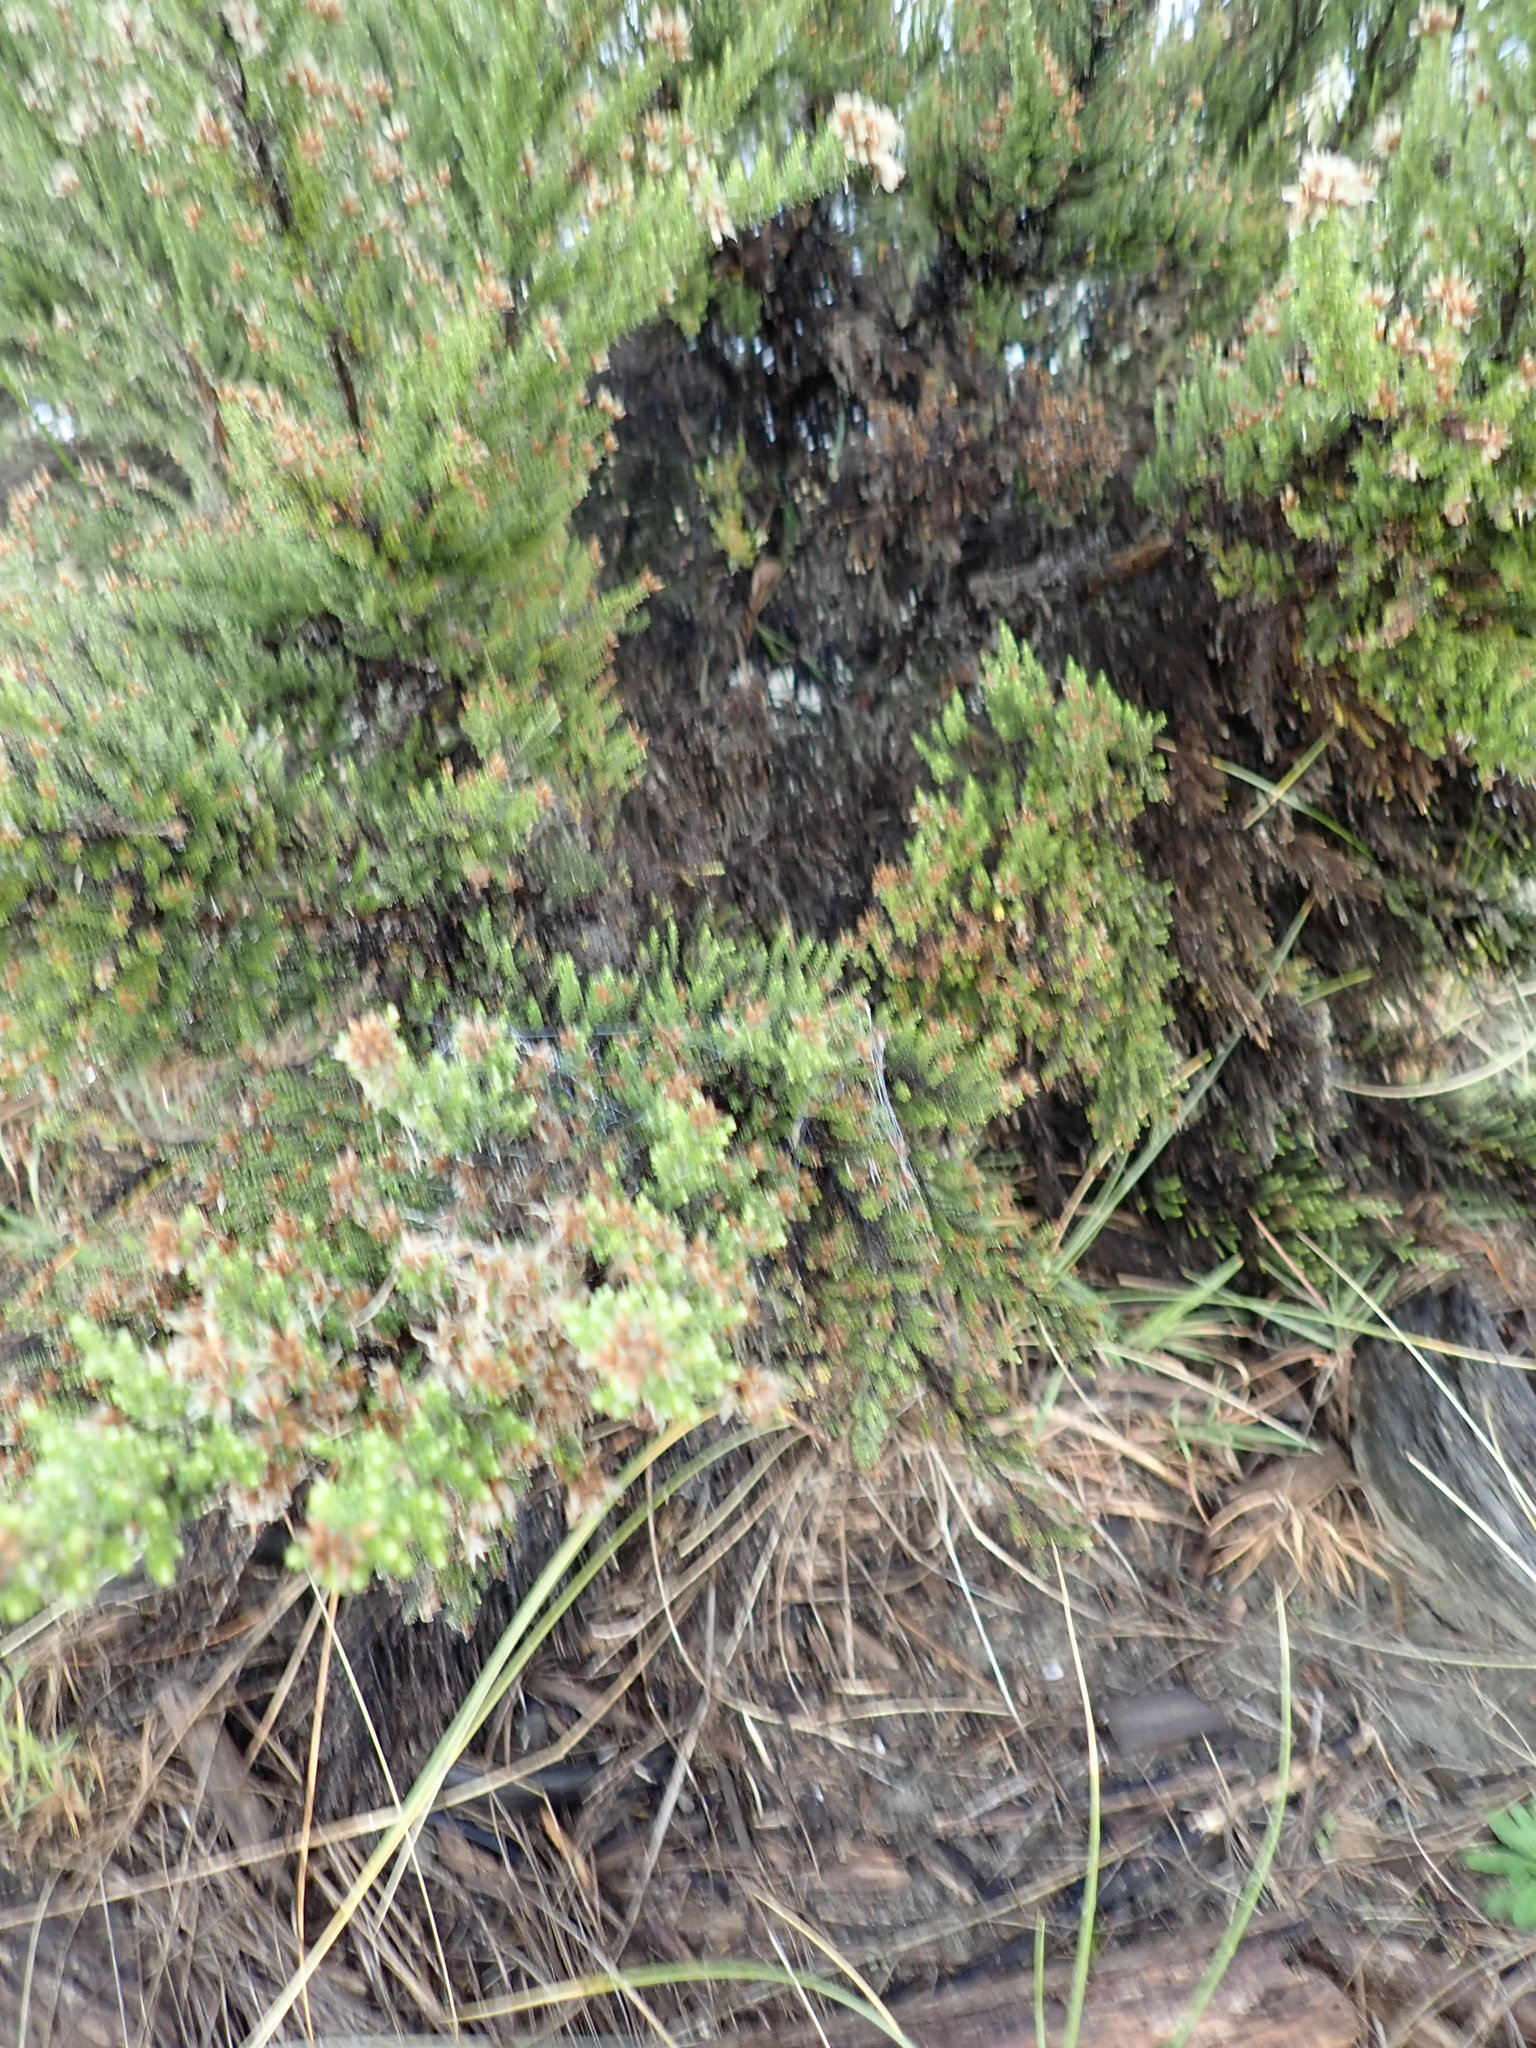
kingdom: Plantae
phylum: Tracheophyta
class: Magnoliopsida
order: Asterales
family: Asteraceae
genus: Ozothamnus
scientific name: Ozothamnus leptophyllus
